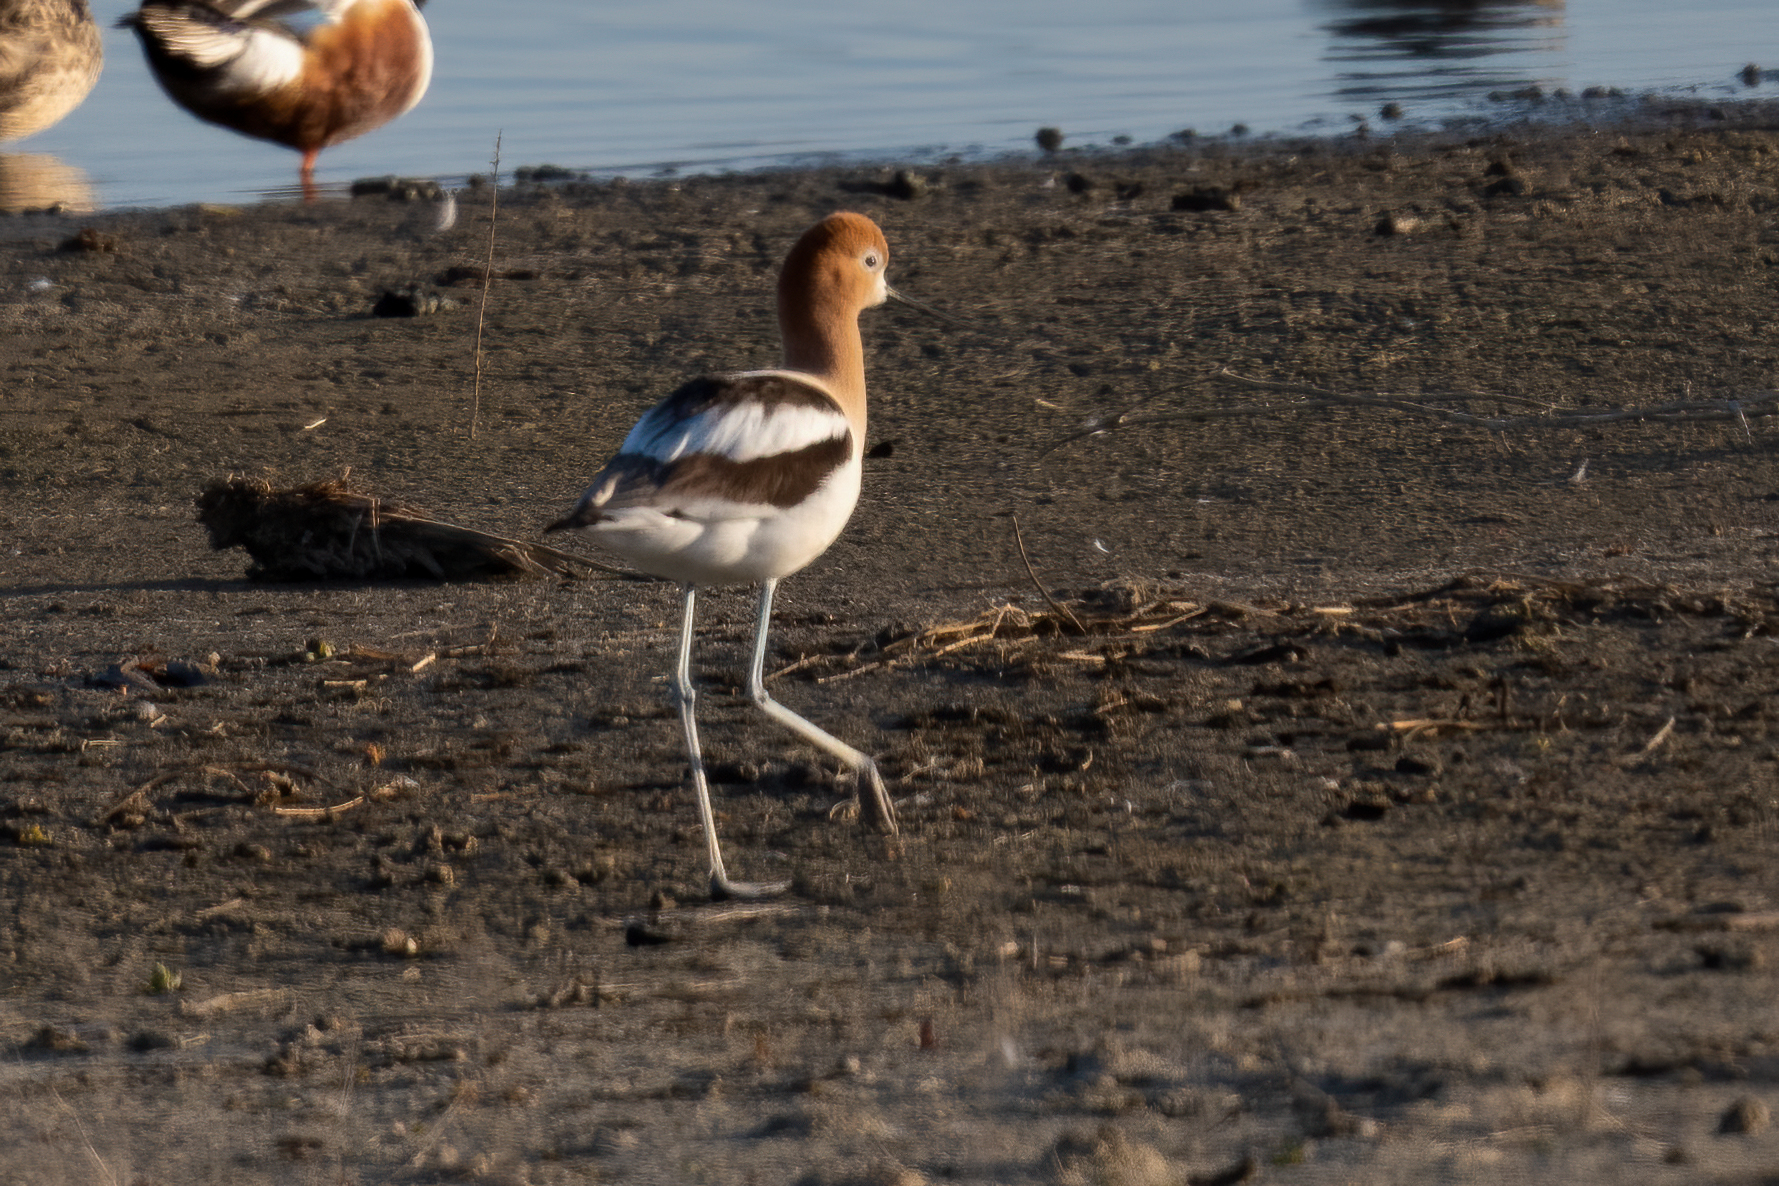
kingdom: Animalia
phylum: Chordata
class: Aves
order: Charadriiformes
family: Recurvirostridae
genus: Recurvirostra
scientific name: Recurvirostra americana
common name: American avocet
